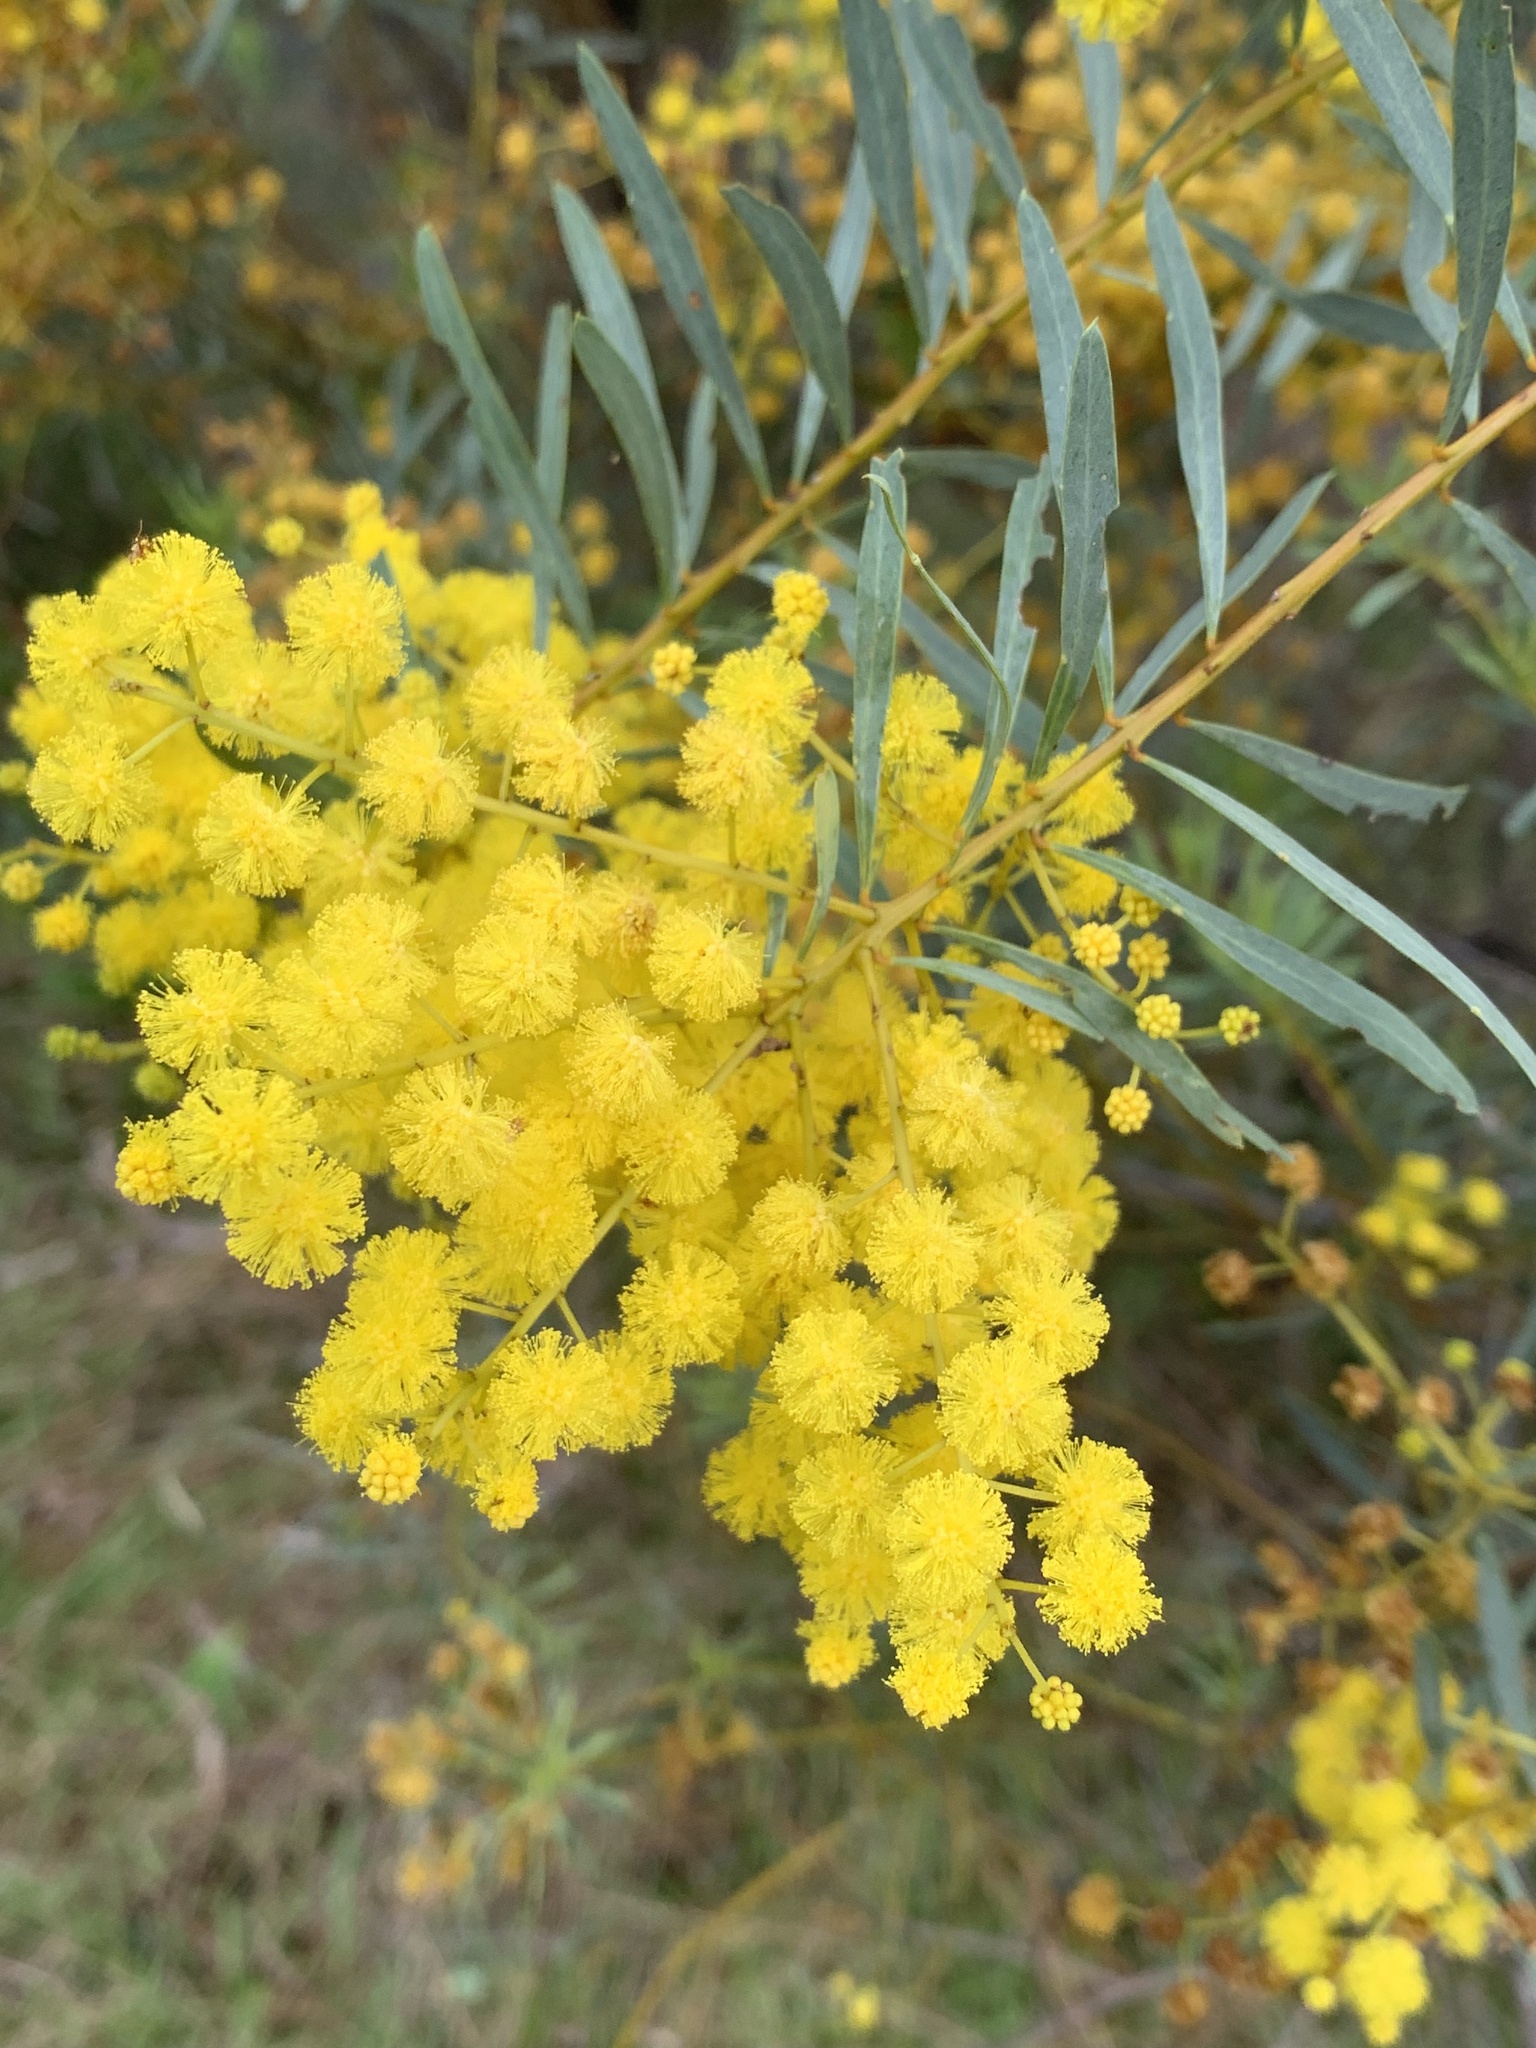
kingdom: Plantae
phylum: Tracheophyta
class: Magnoliopsida
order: Fabales
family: Fabaceae
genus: Acacia
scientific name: Acacia decora
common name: Showy wattle
